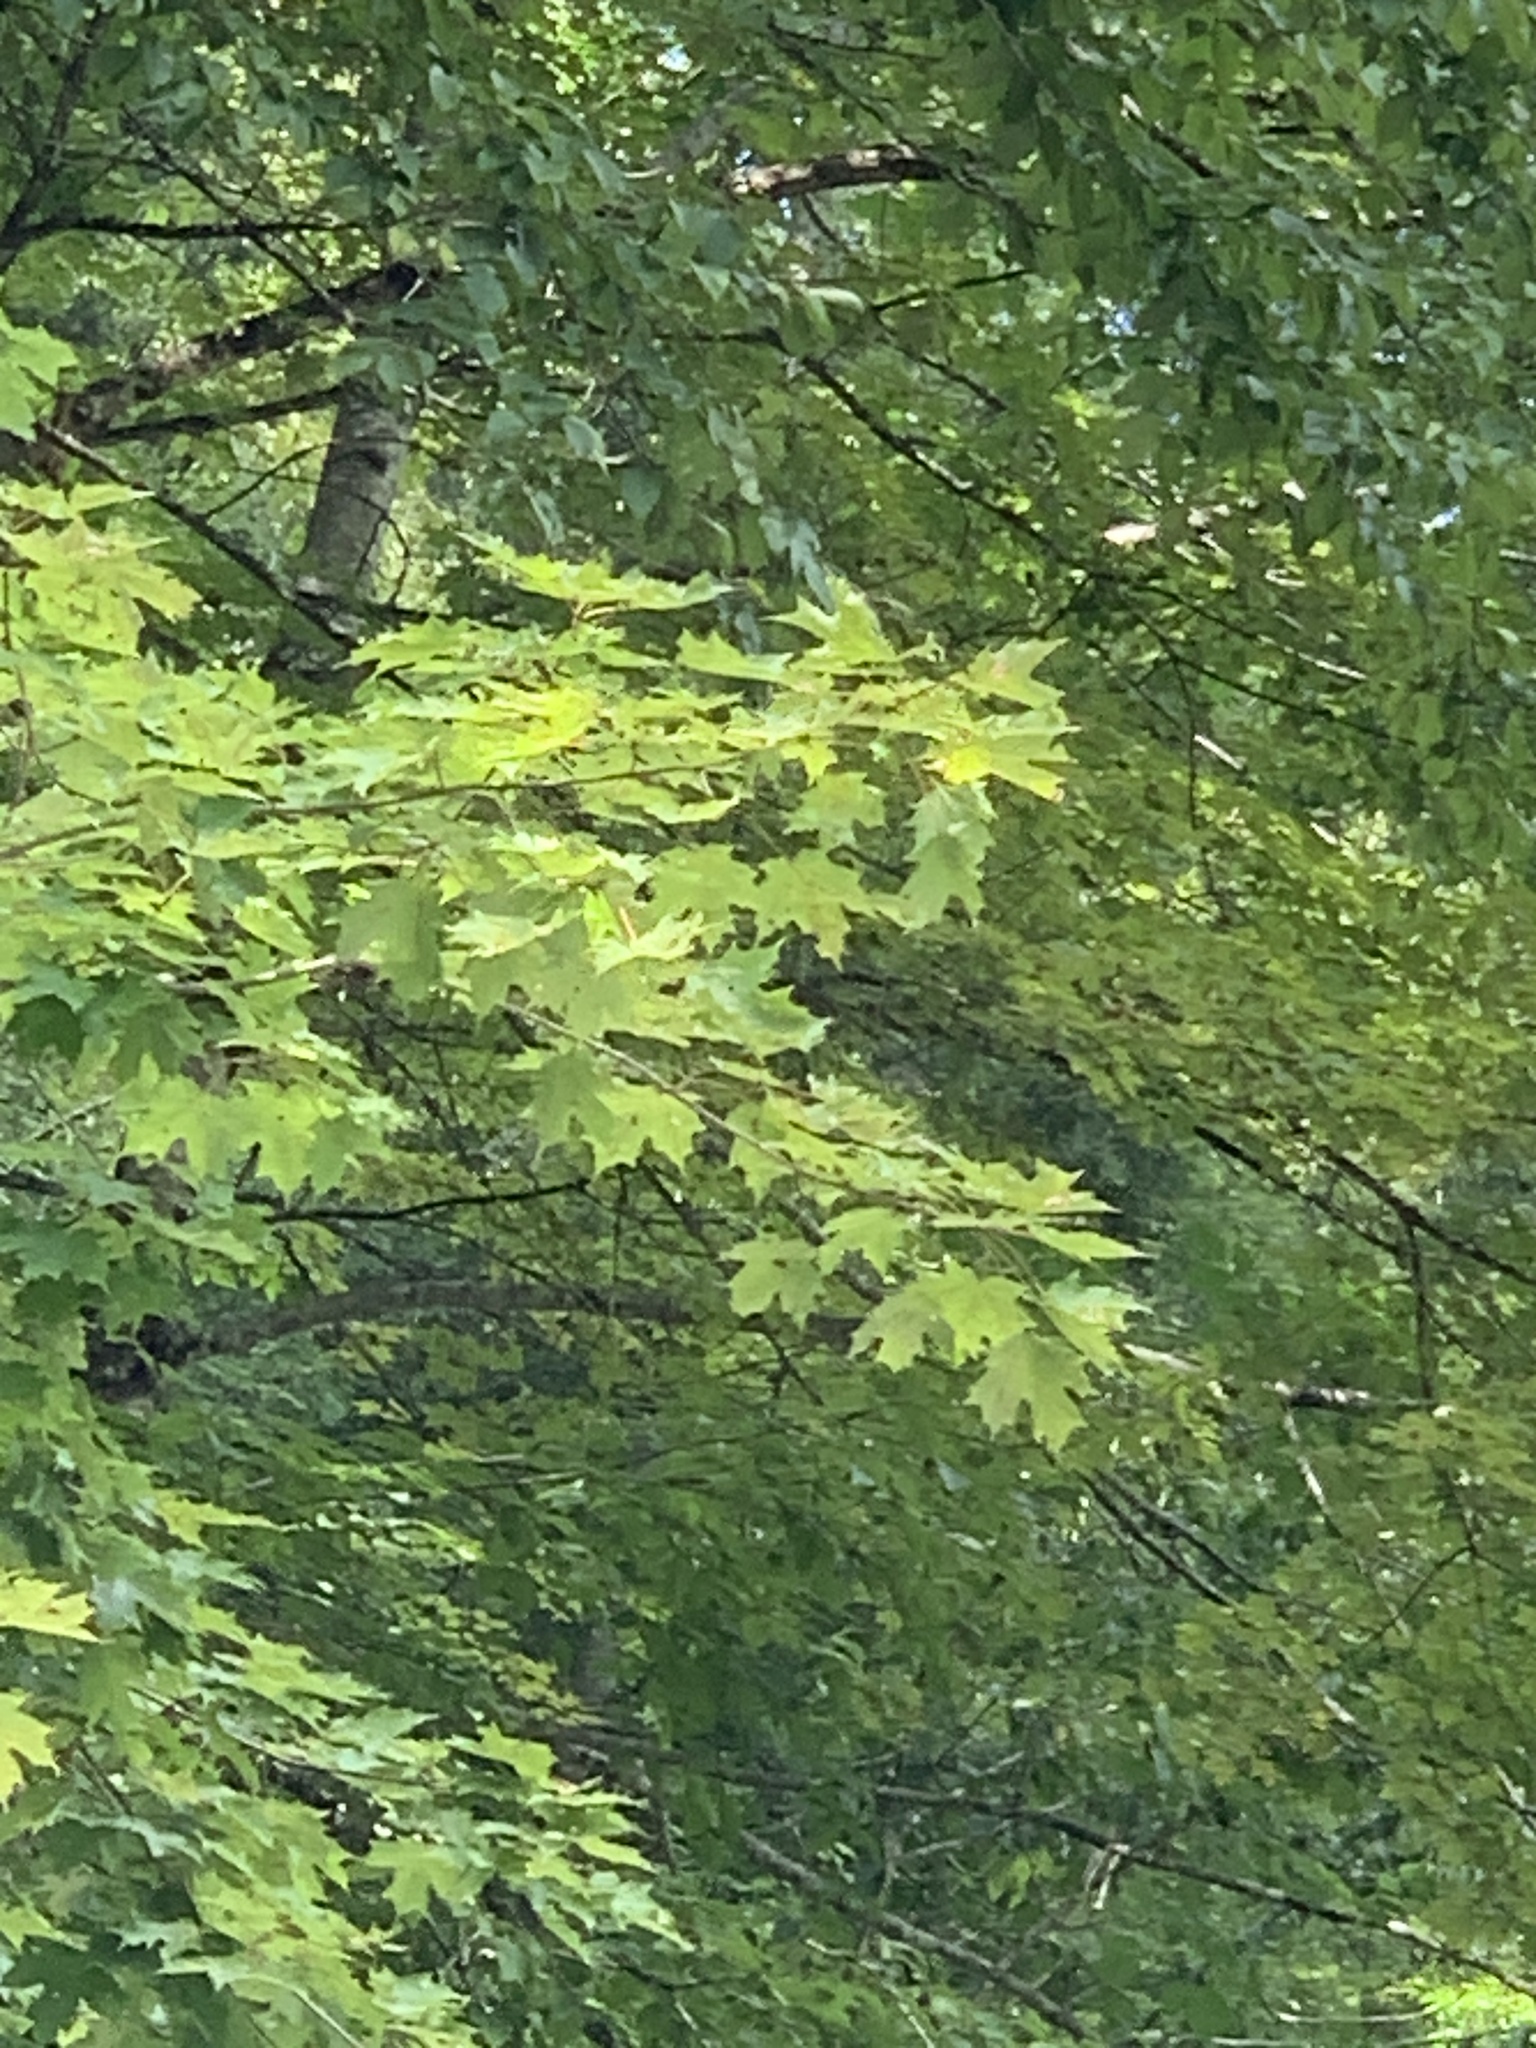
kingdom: Plantae
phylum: Tracheophyta
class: Magnoliopsida
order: Sapindales
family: Sapindaceae
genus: Acer
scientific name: Acer saccharum
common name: Sugar maple
